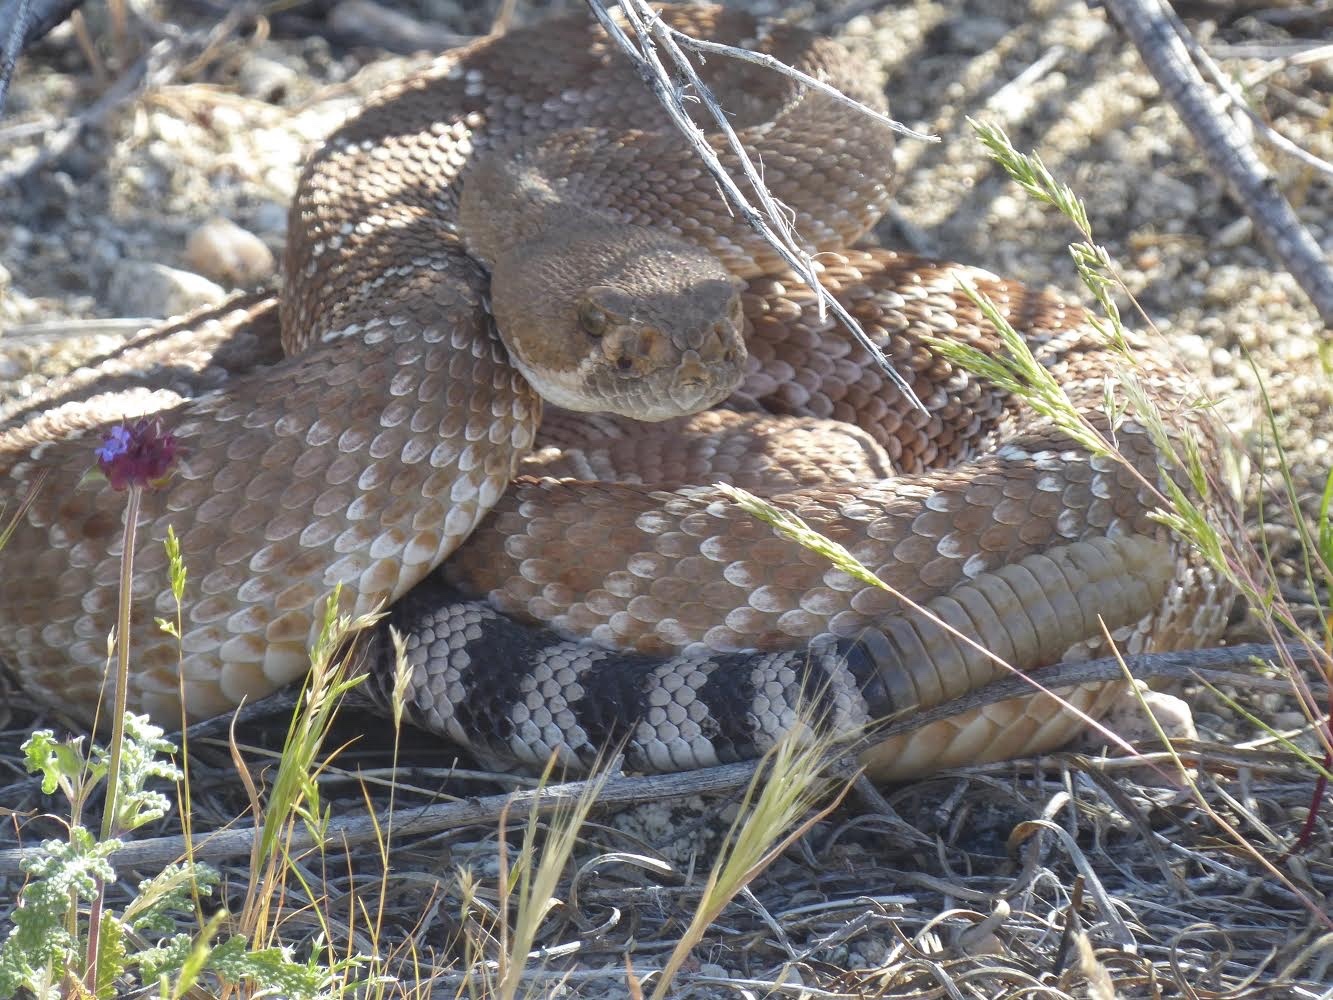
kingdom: Animalia
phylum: Chordata
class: Squamata
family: Viperidae
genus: Crotalus
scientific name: Crotalus ruber
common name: Red diamond rattlesnake
